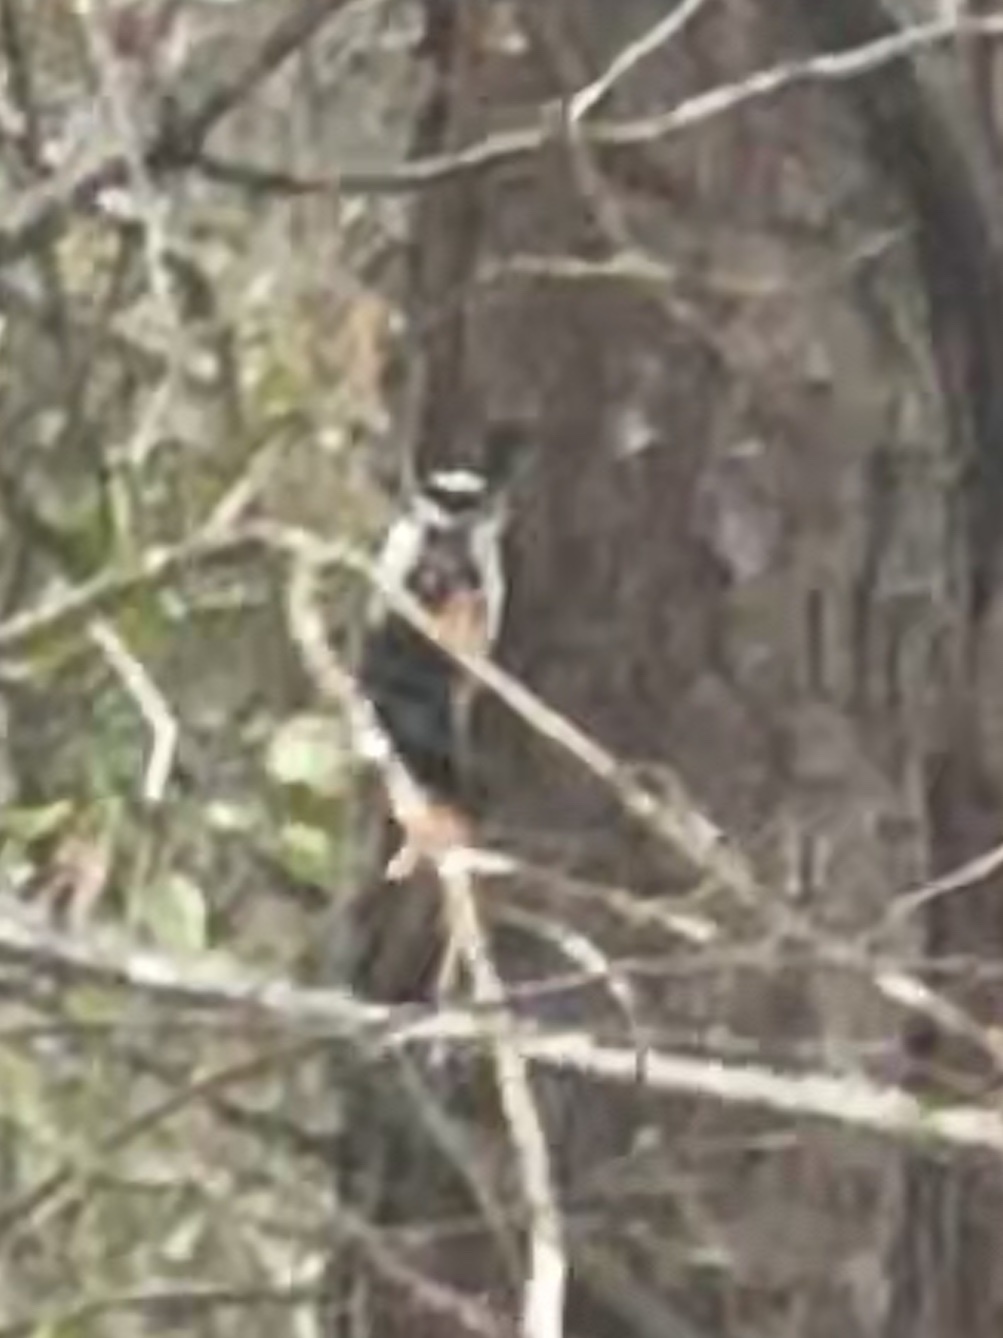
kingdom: Animalia
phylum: Chordata
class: Aves
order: Piciformes
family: Picidae
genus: Dryobates
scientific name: Dryobates pubescens
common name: Downy woodpecker
